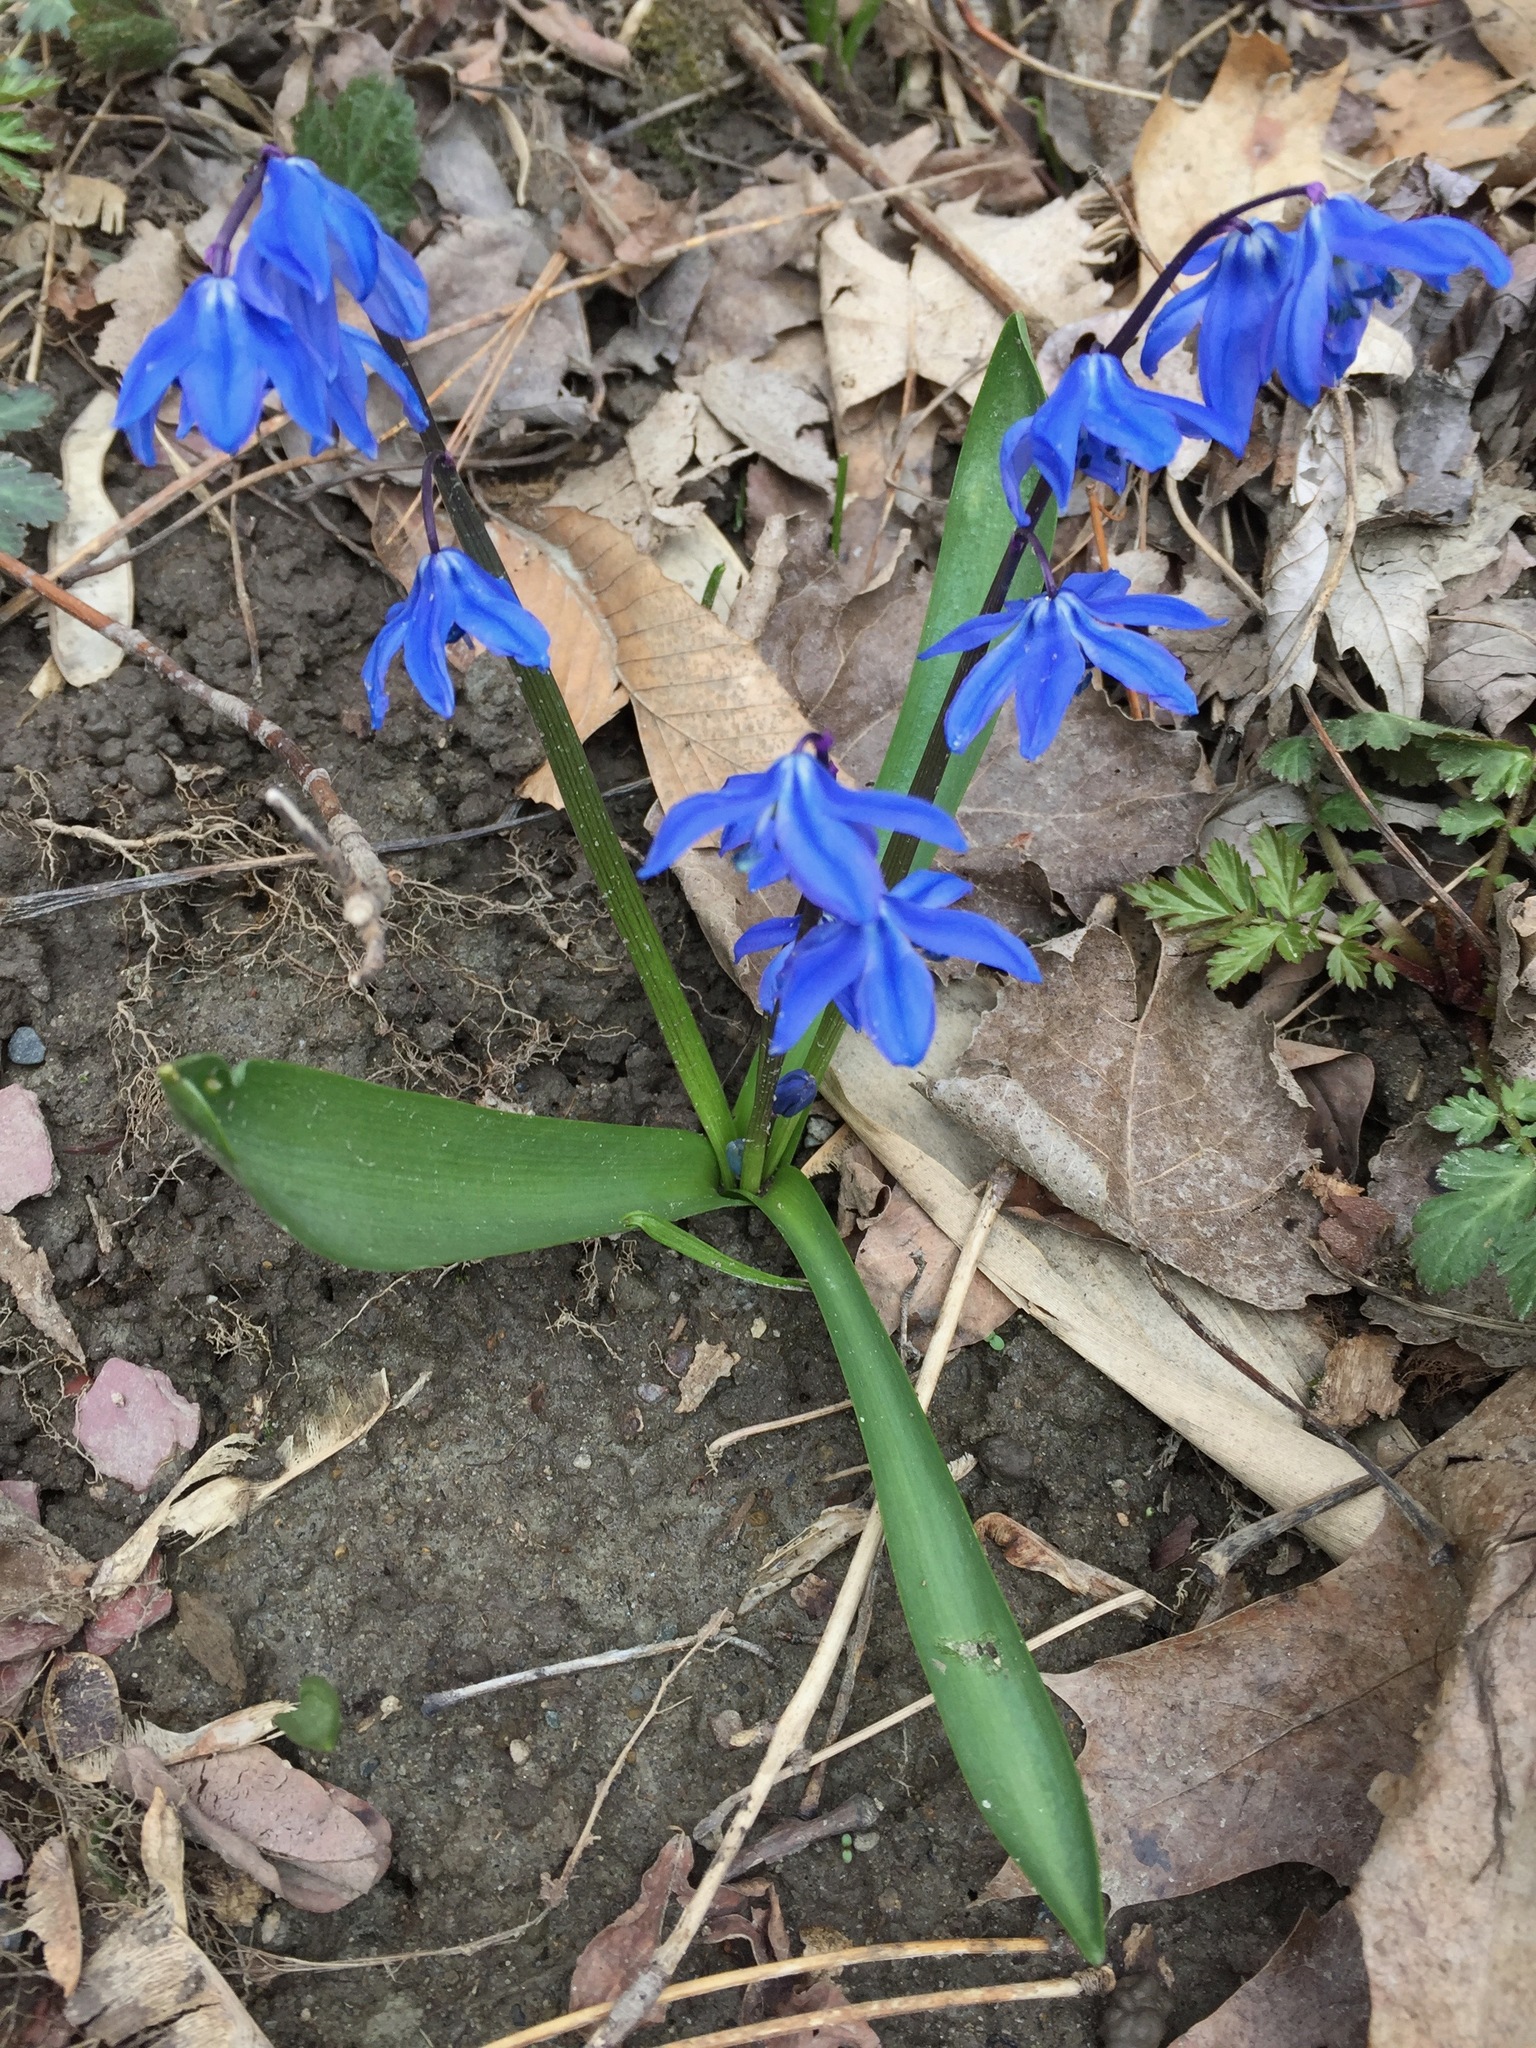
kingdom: Plantae
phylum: Tracheophyta
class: Liliopsida
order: Asparagales
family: Asparagaceae
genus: Scilla
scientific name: Scilla siberica
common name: Siberian squill
